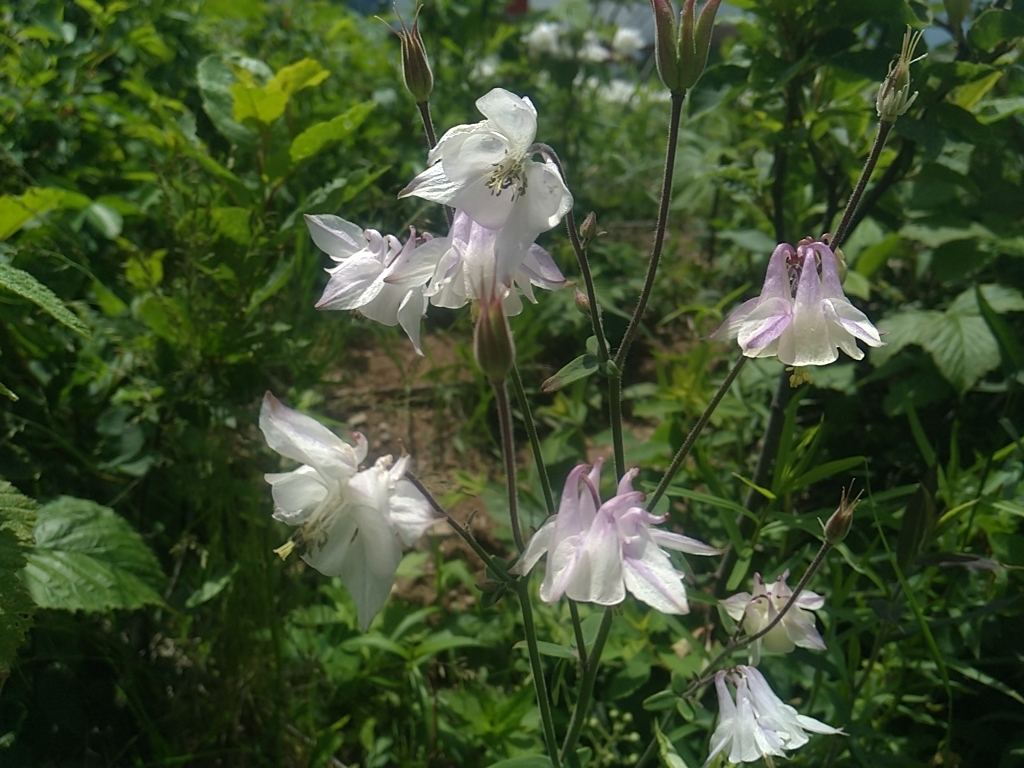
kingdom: Plantae
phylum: Tracheophyta
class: Magnoliopsida
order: Ranunculales
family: Ranunculaceae
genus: Aquilegia
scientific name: Aquilegia vulgaris
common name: Columbine
